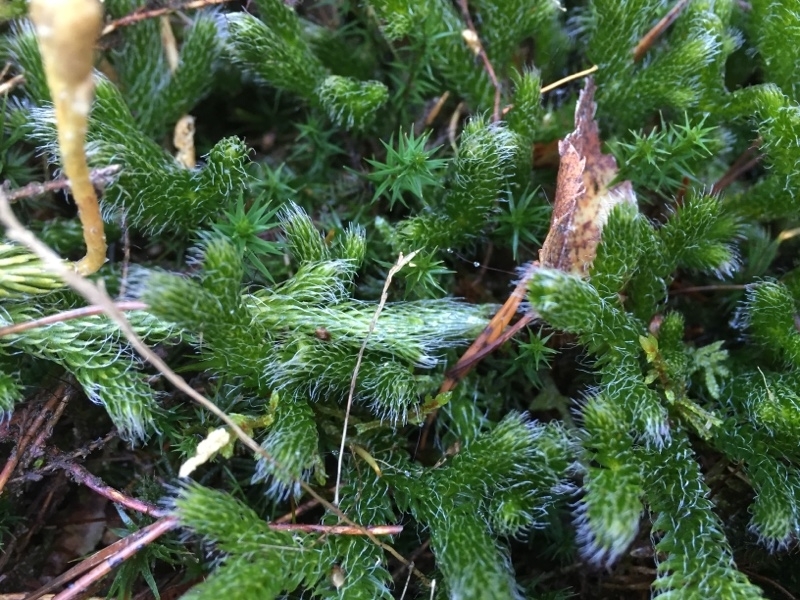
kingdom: Plantae
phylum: Tracheophyta
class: Lycopodiopsida
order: Lycopodiales
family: Lycopodiaceae
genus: Lycopodium
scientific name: Lycopodium clavatum
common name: Stag's-horn clubmoss
